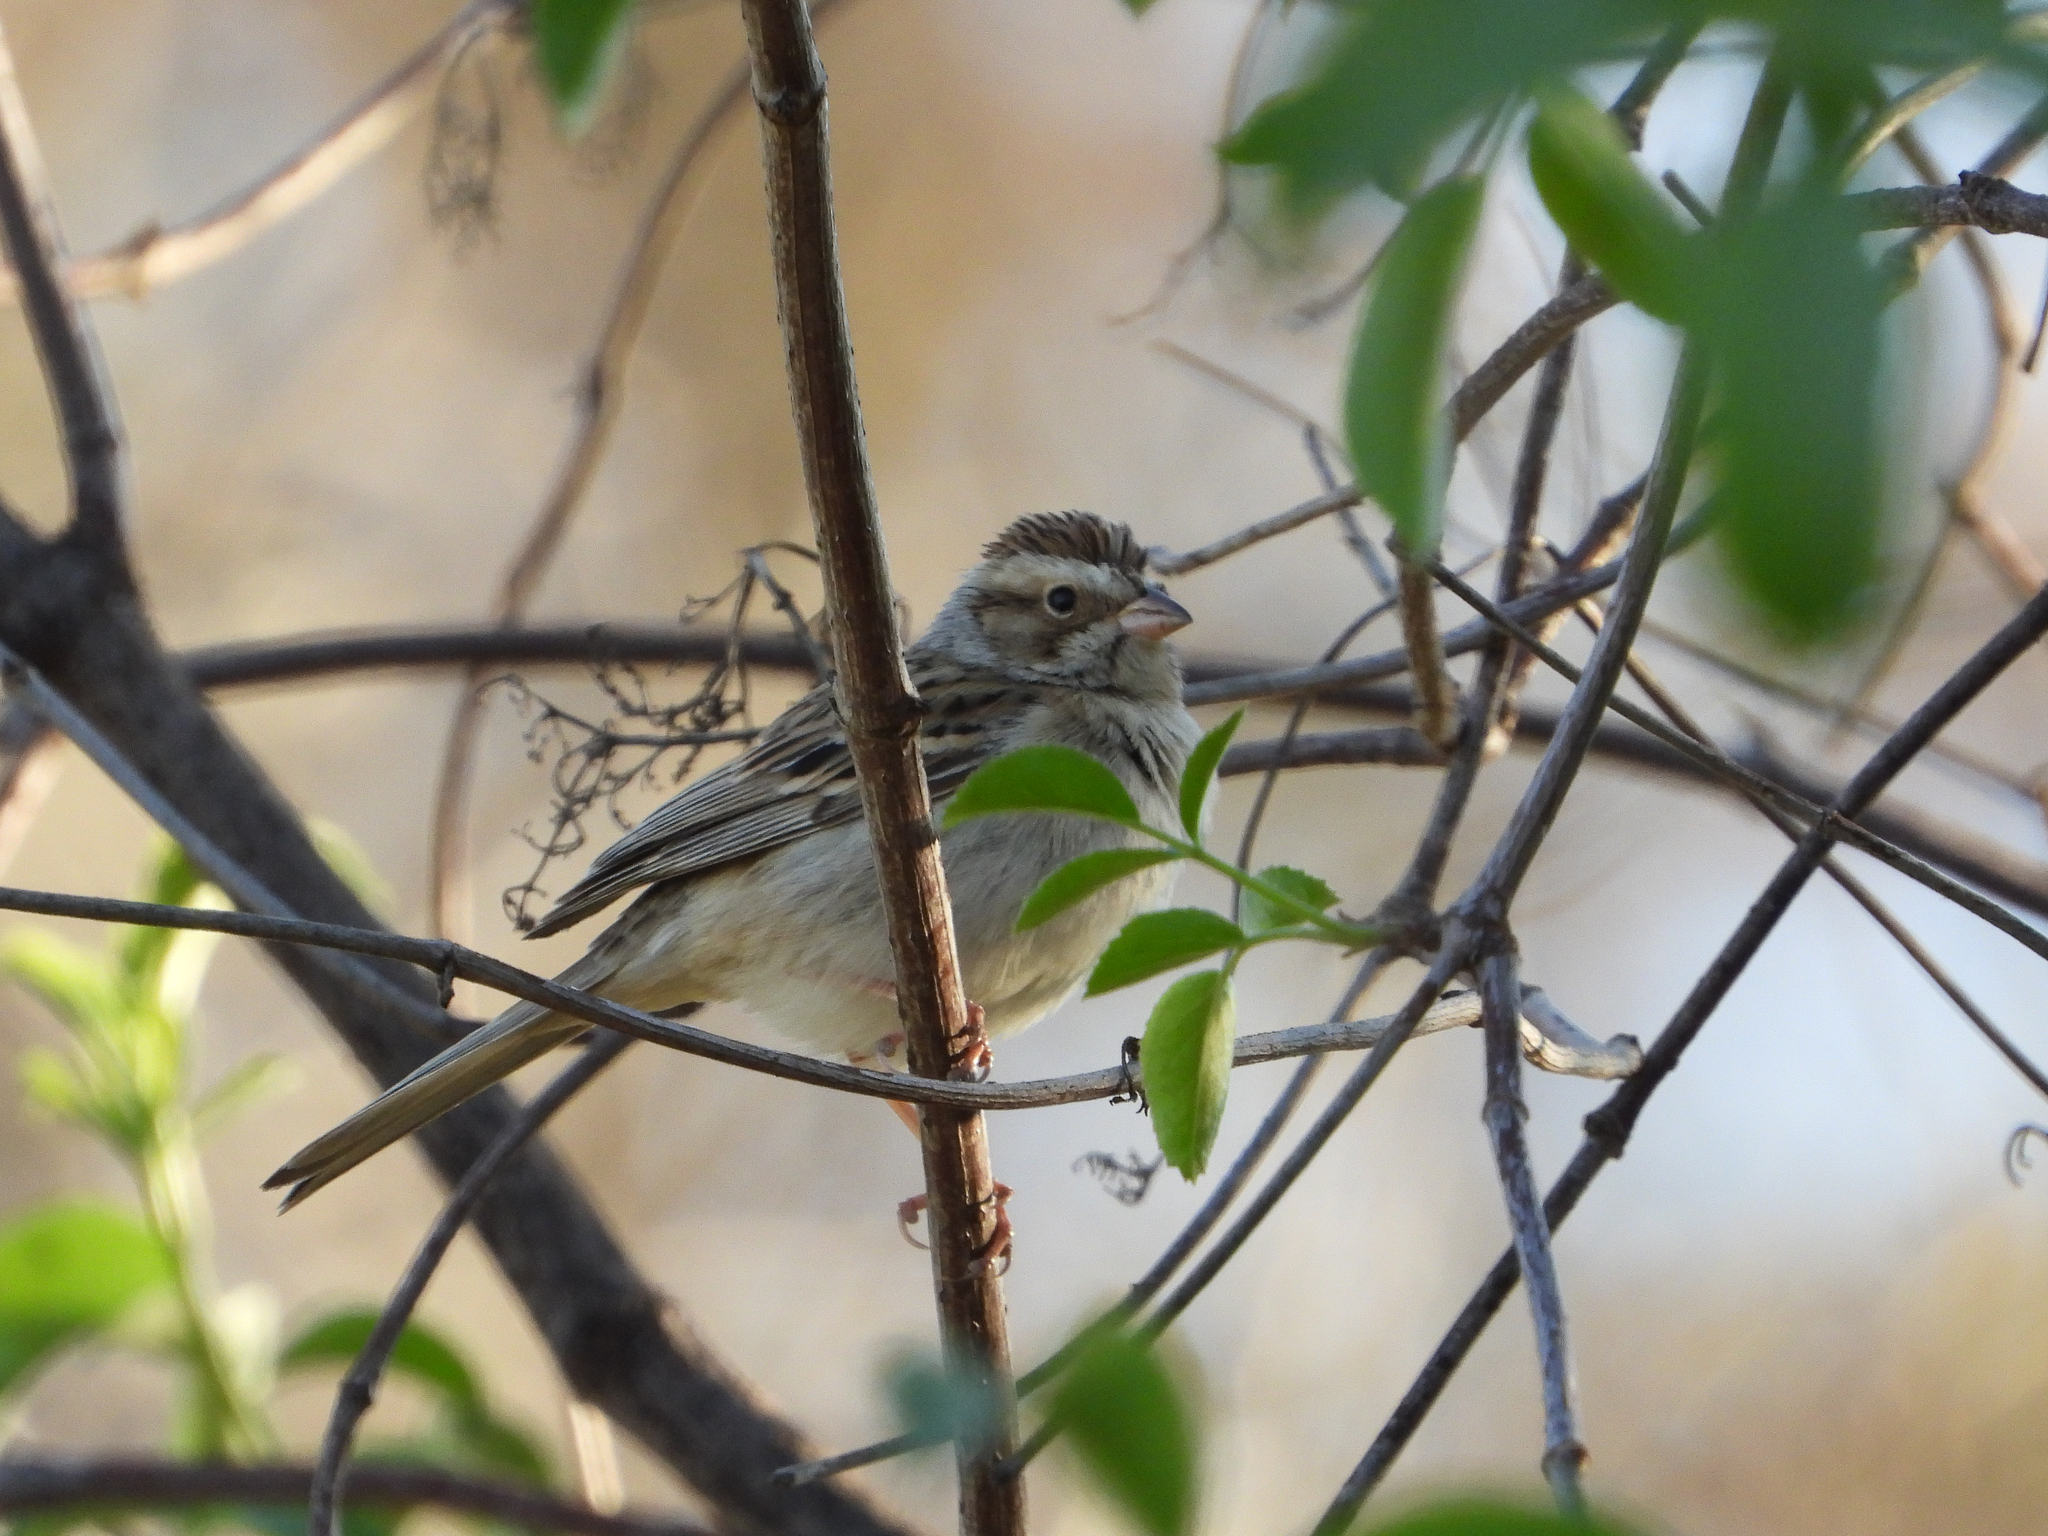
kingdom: Animalia
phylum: Chordata
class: Aves
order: Passeriformes
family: Passerellidae
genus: Spizella
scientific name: Spizella pallida
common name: Clay-colored sparrow
